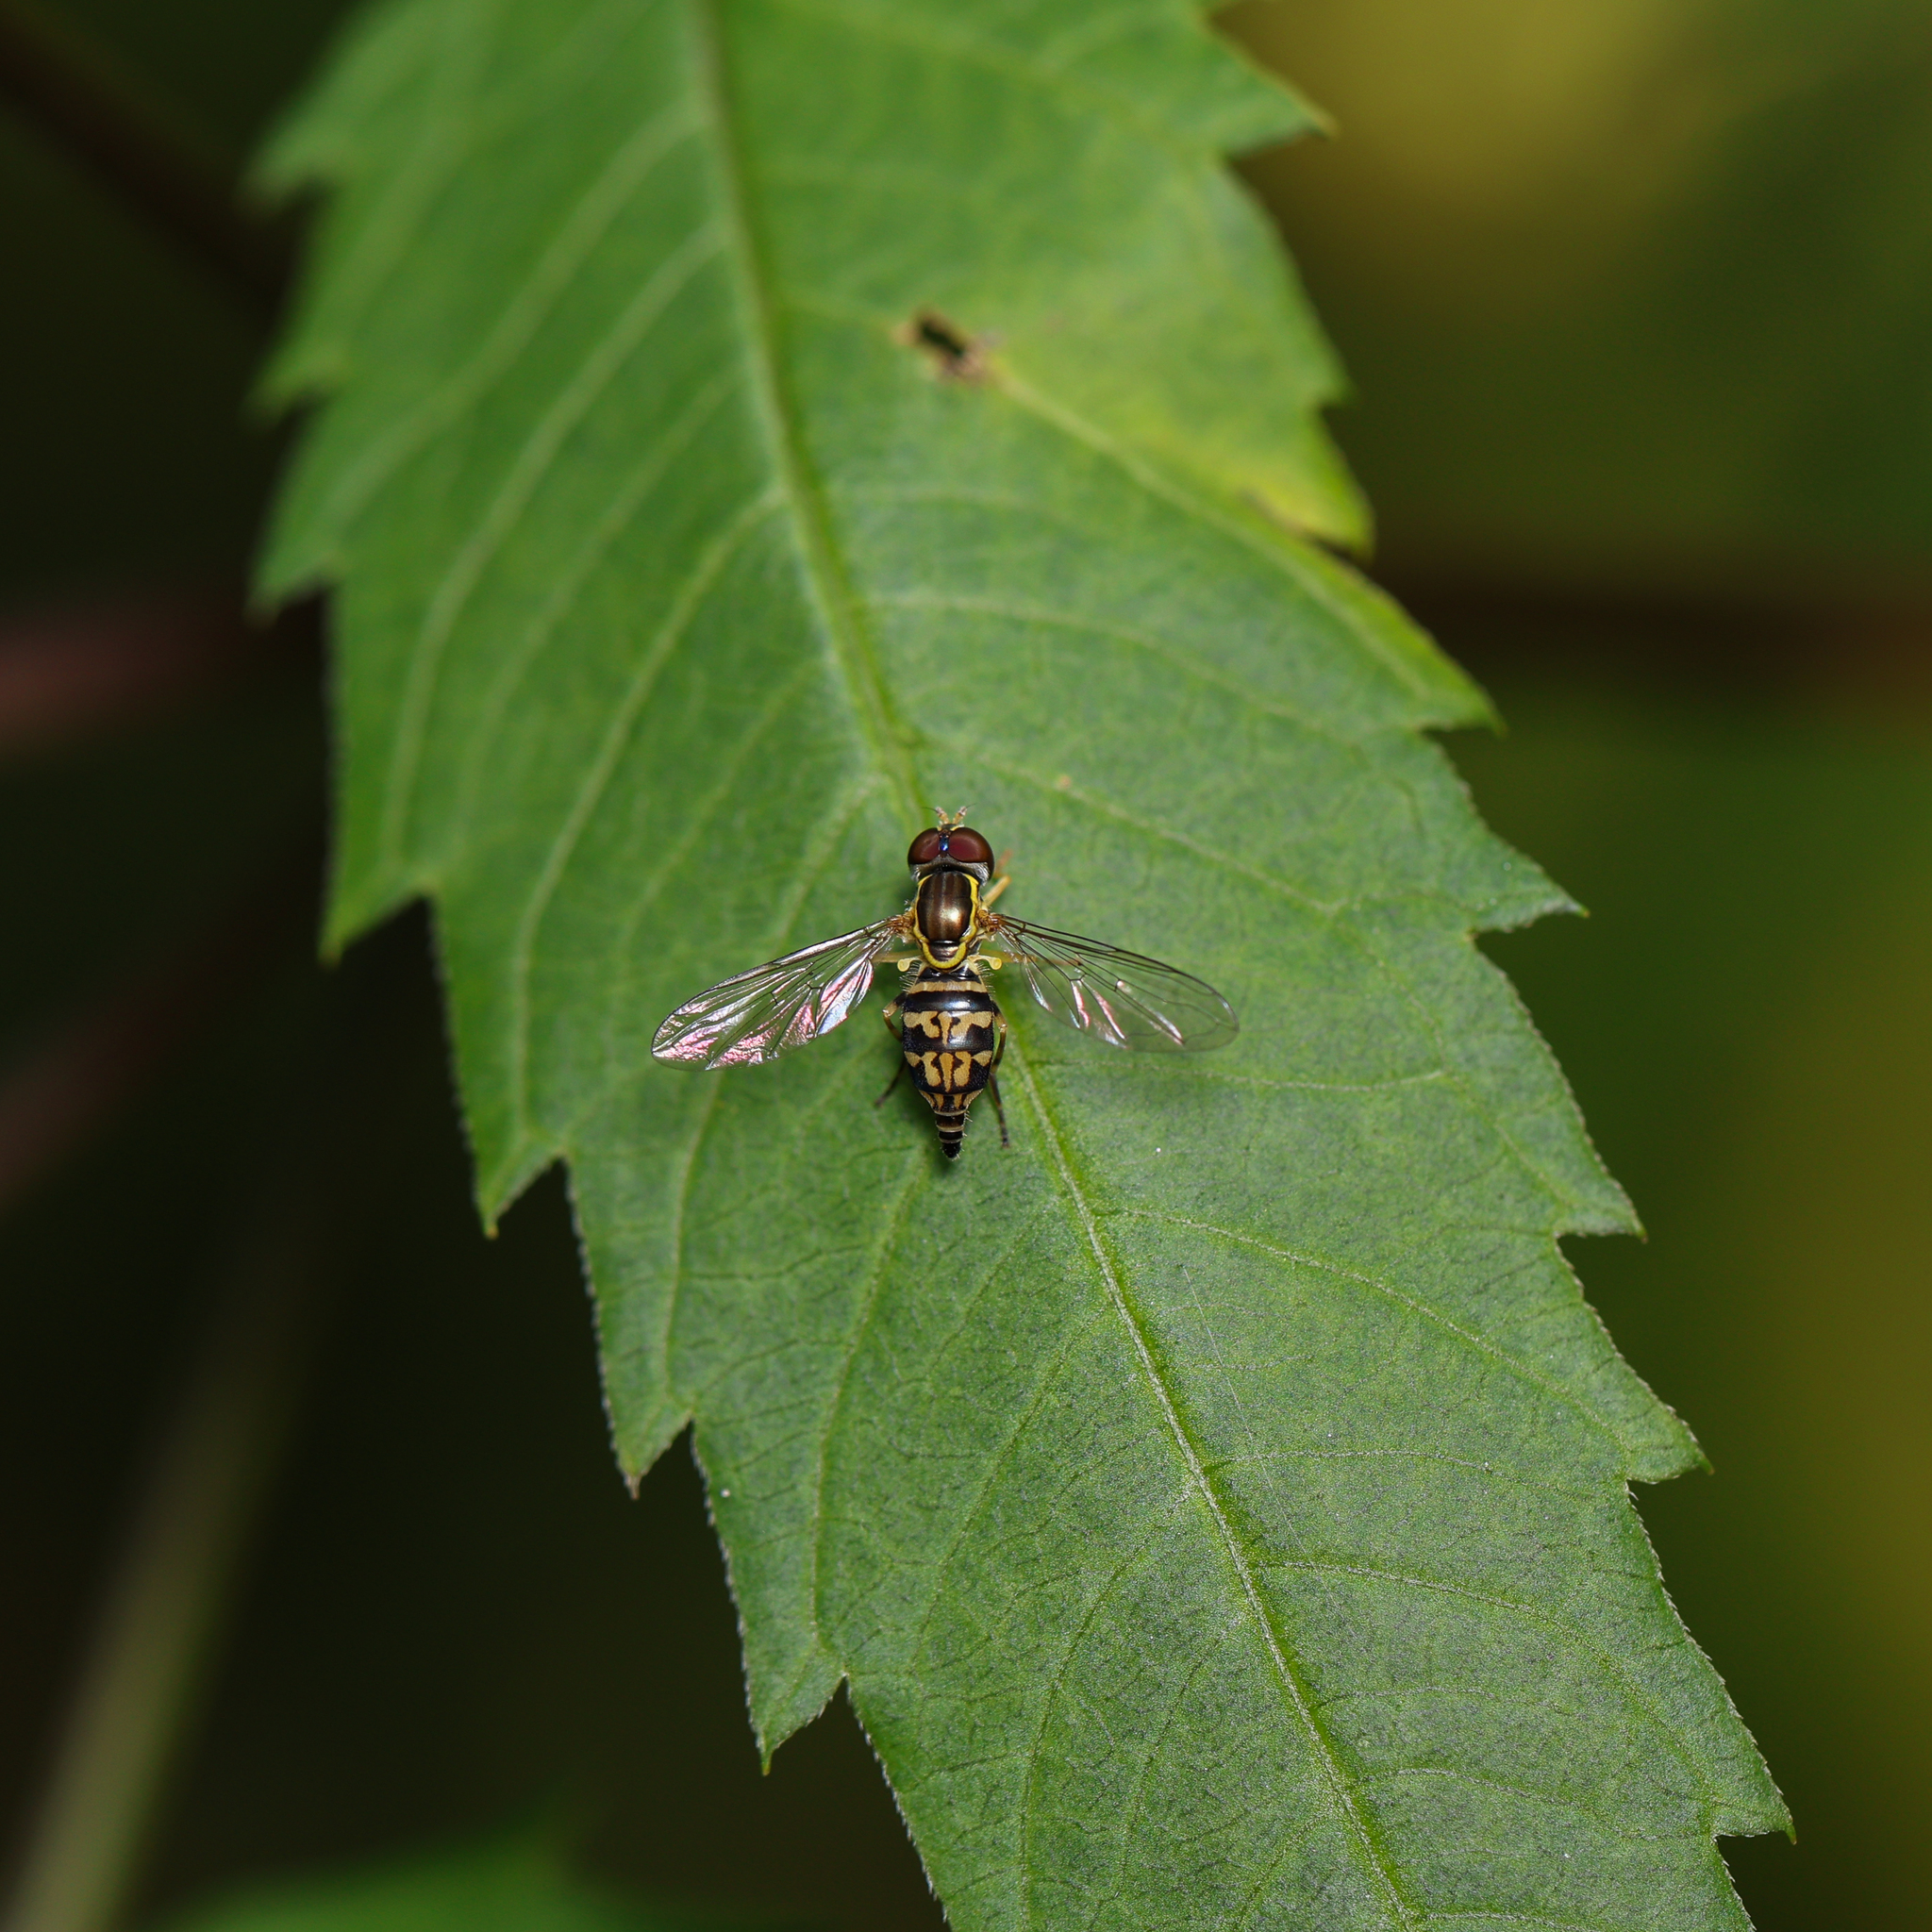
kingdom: Animalia
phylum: Arthropoda
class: Insecta
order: Diptera
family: Syrphidae
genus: Toxomerus
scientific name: Toxomerus geminatus
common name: Eastern calligrapher
